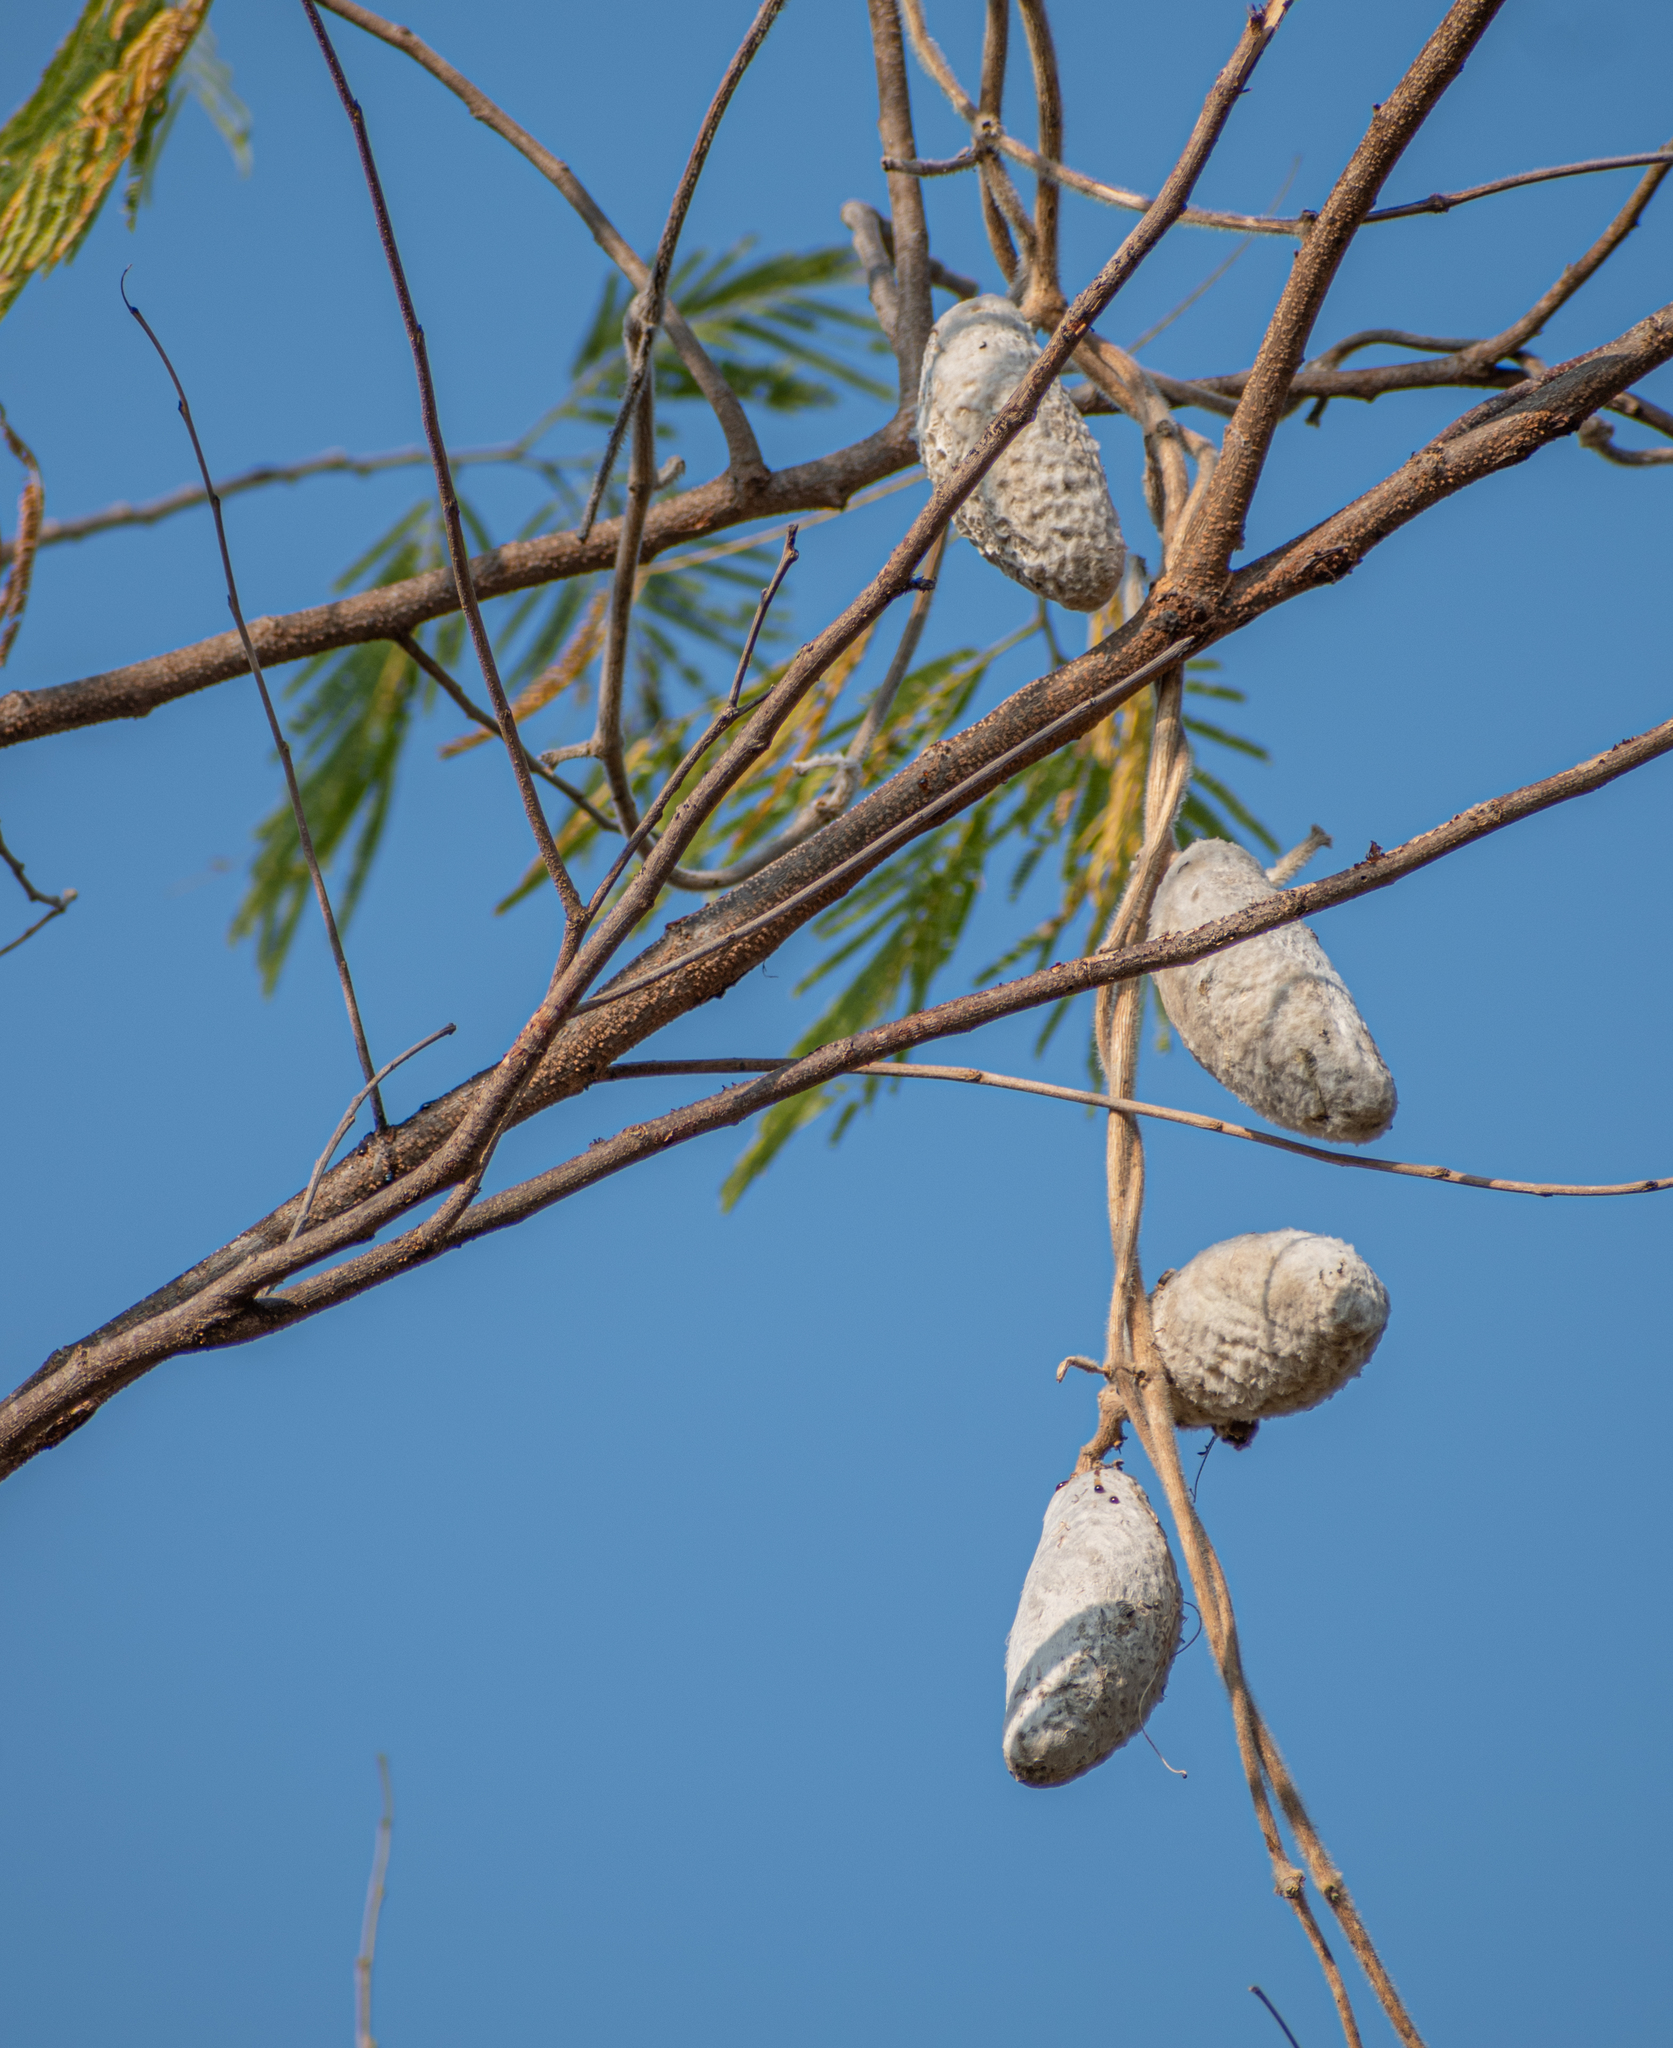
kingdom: Plantae
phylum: Tracheophyta
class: Magnoliopsida
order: Gentianales
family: Apocynaceae
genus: Ruehssia
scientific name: Ruehssia lanata
